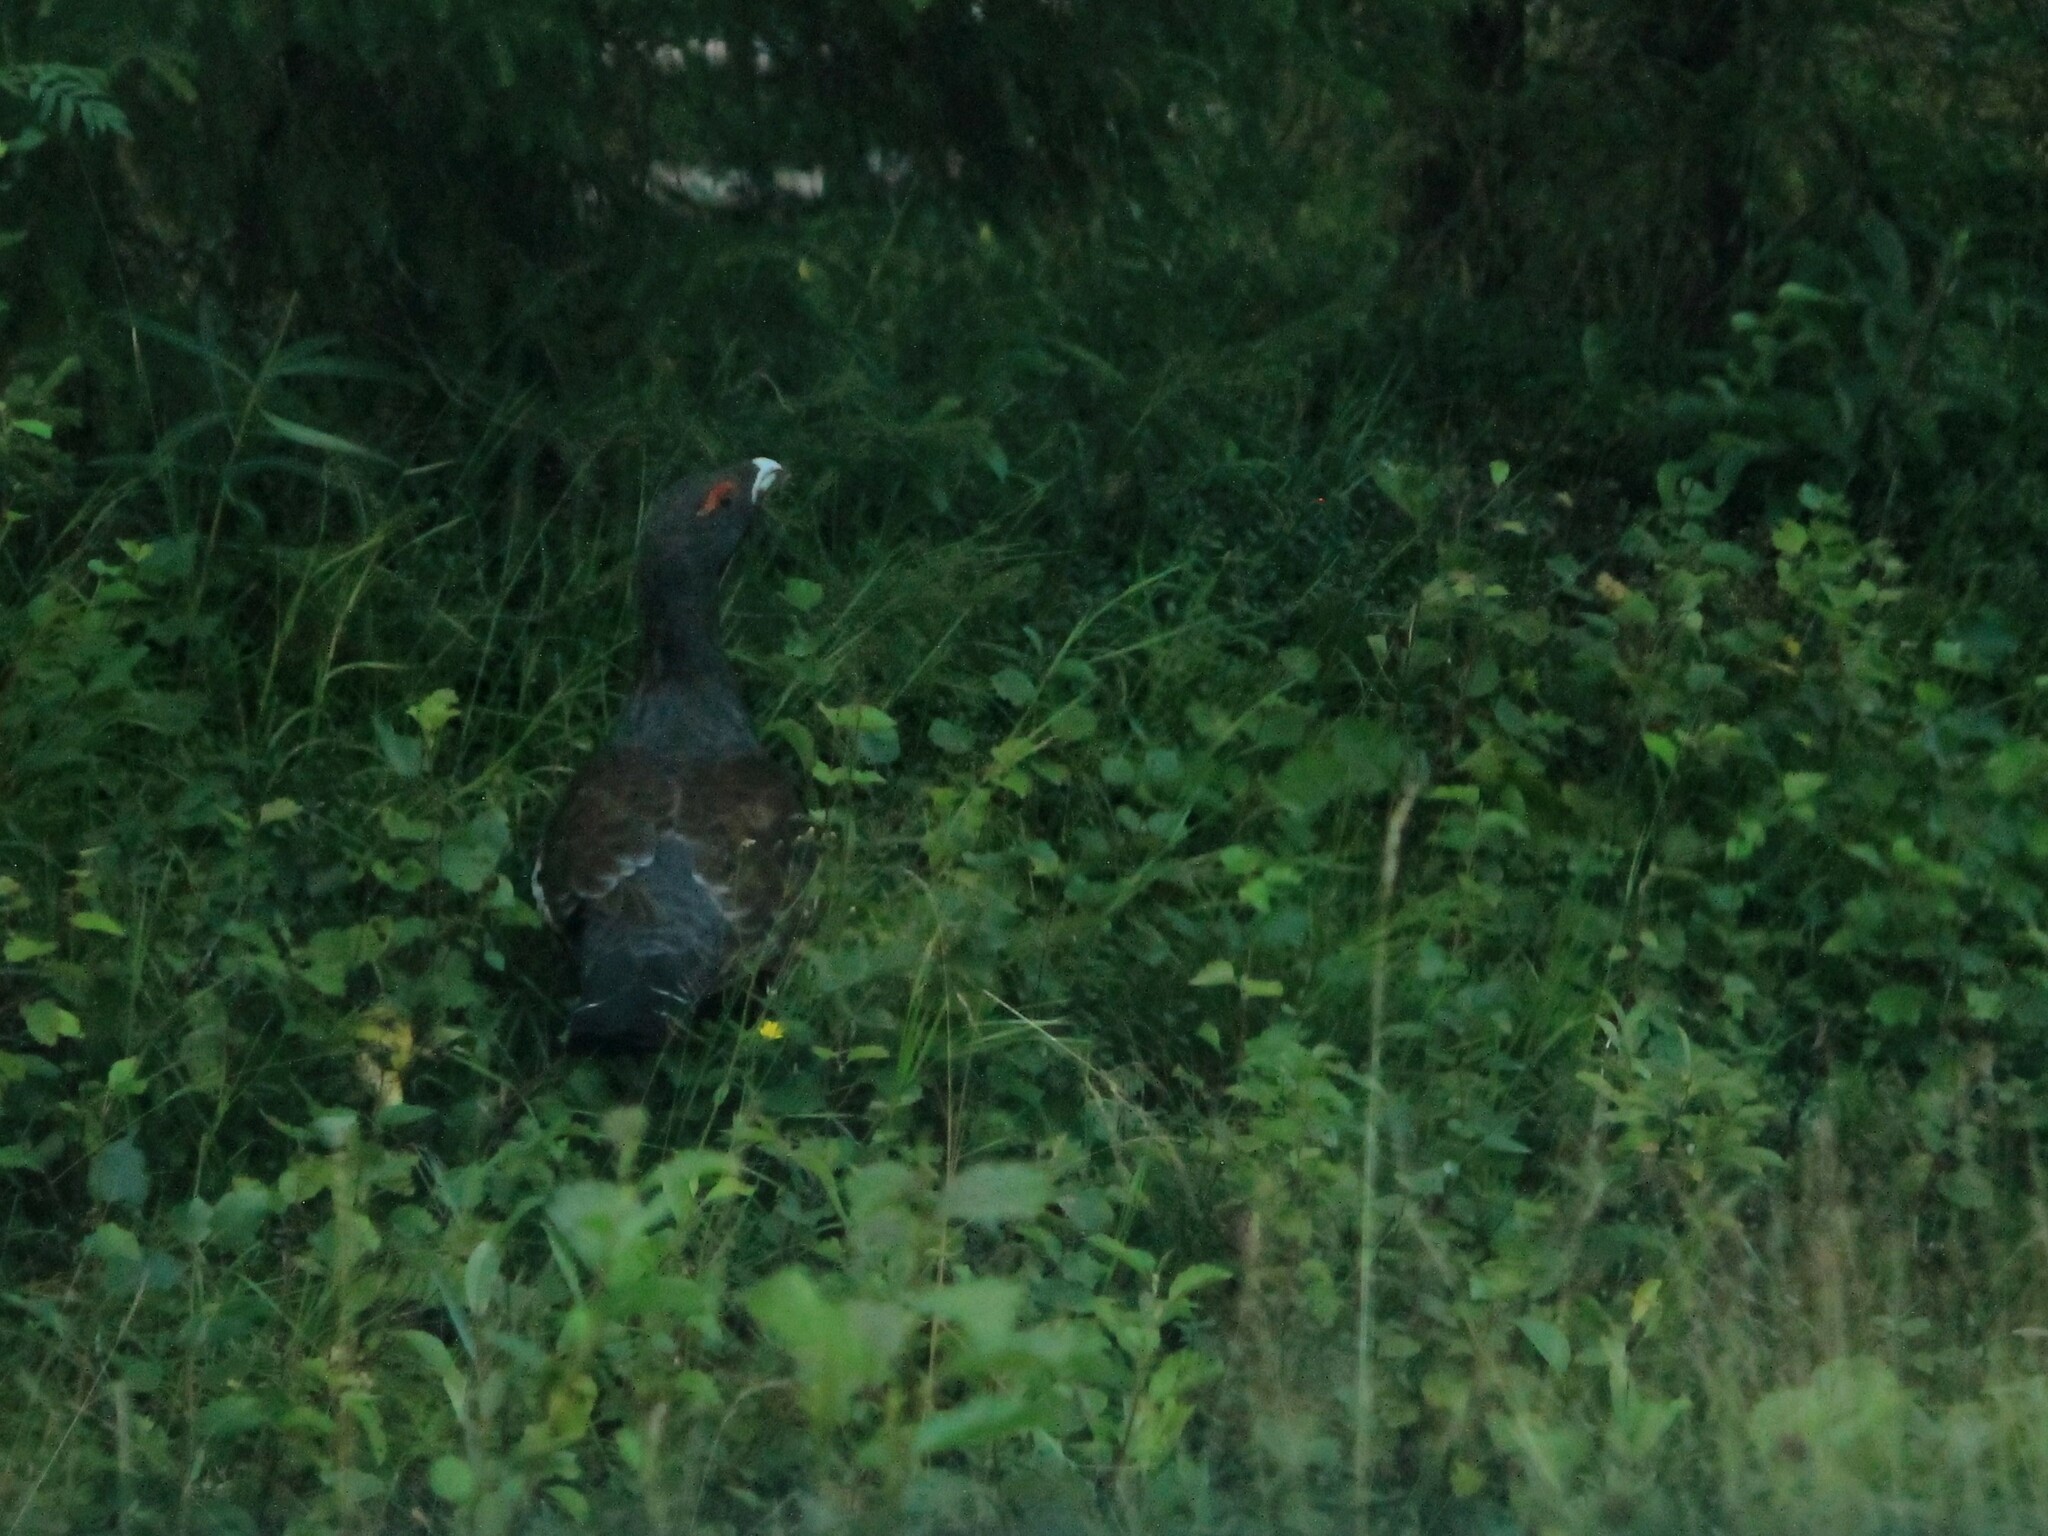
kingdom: Animalia
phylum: Chordata
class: Aves
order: Galliformes
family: Phasianidae
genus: Tetrao
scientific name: Tetrao urogallus
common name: Western capercaillie
